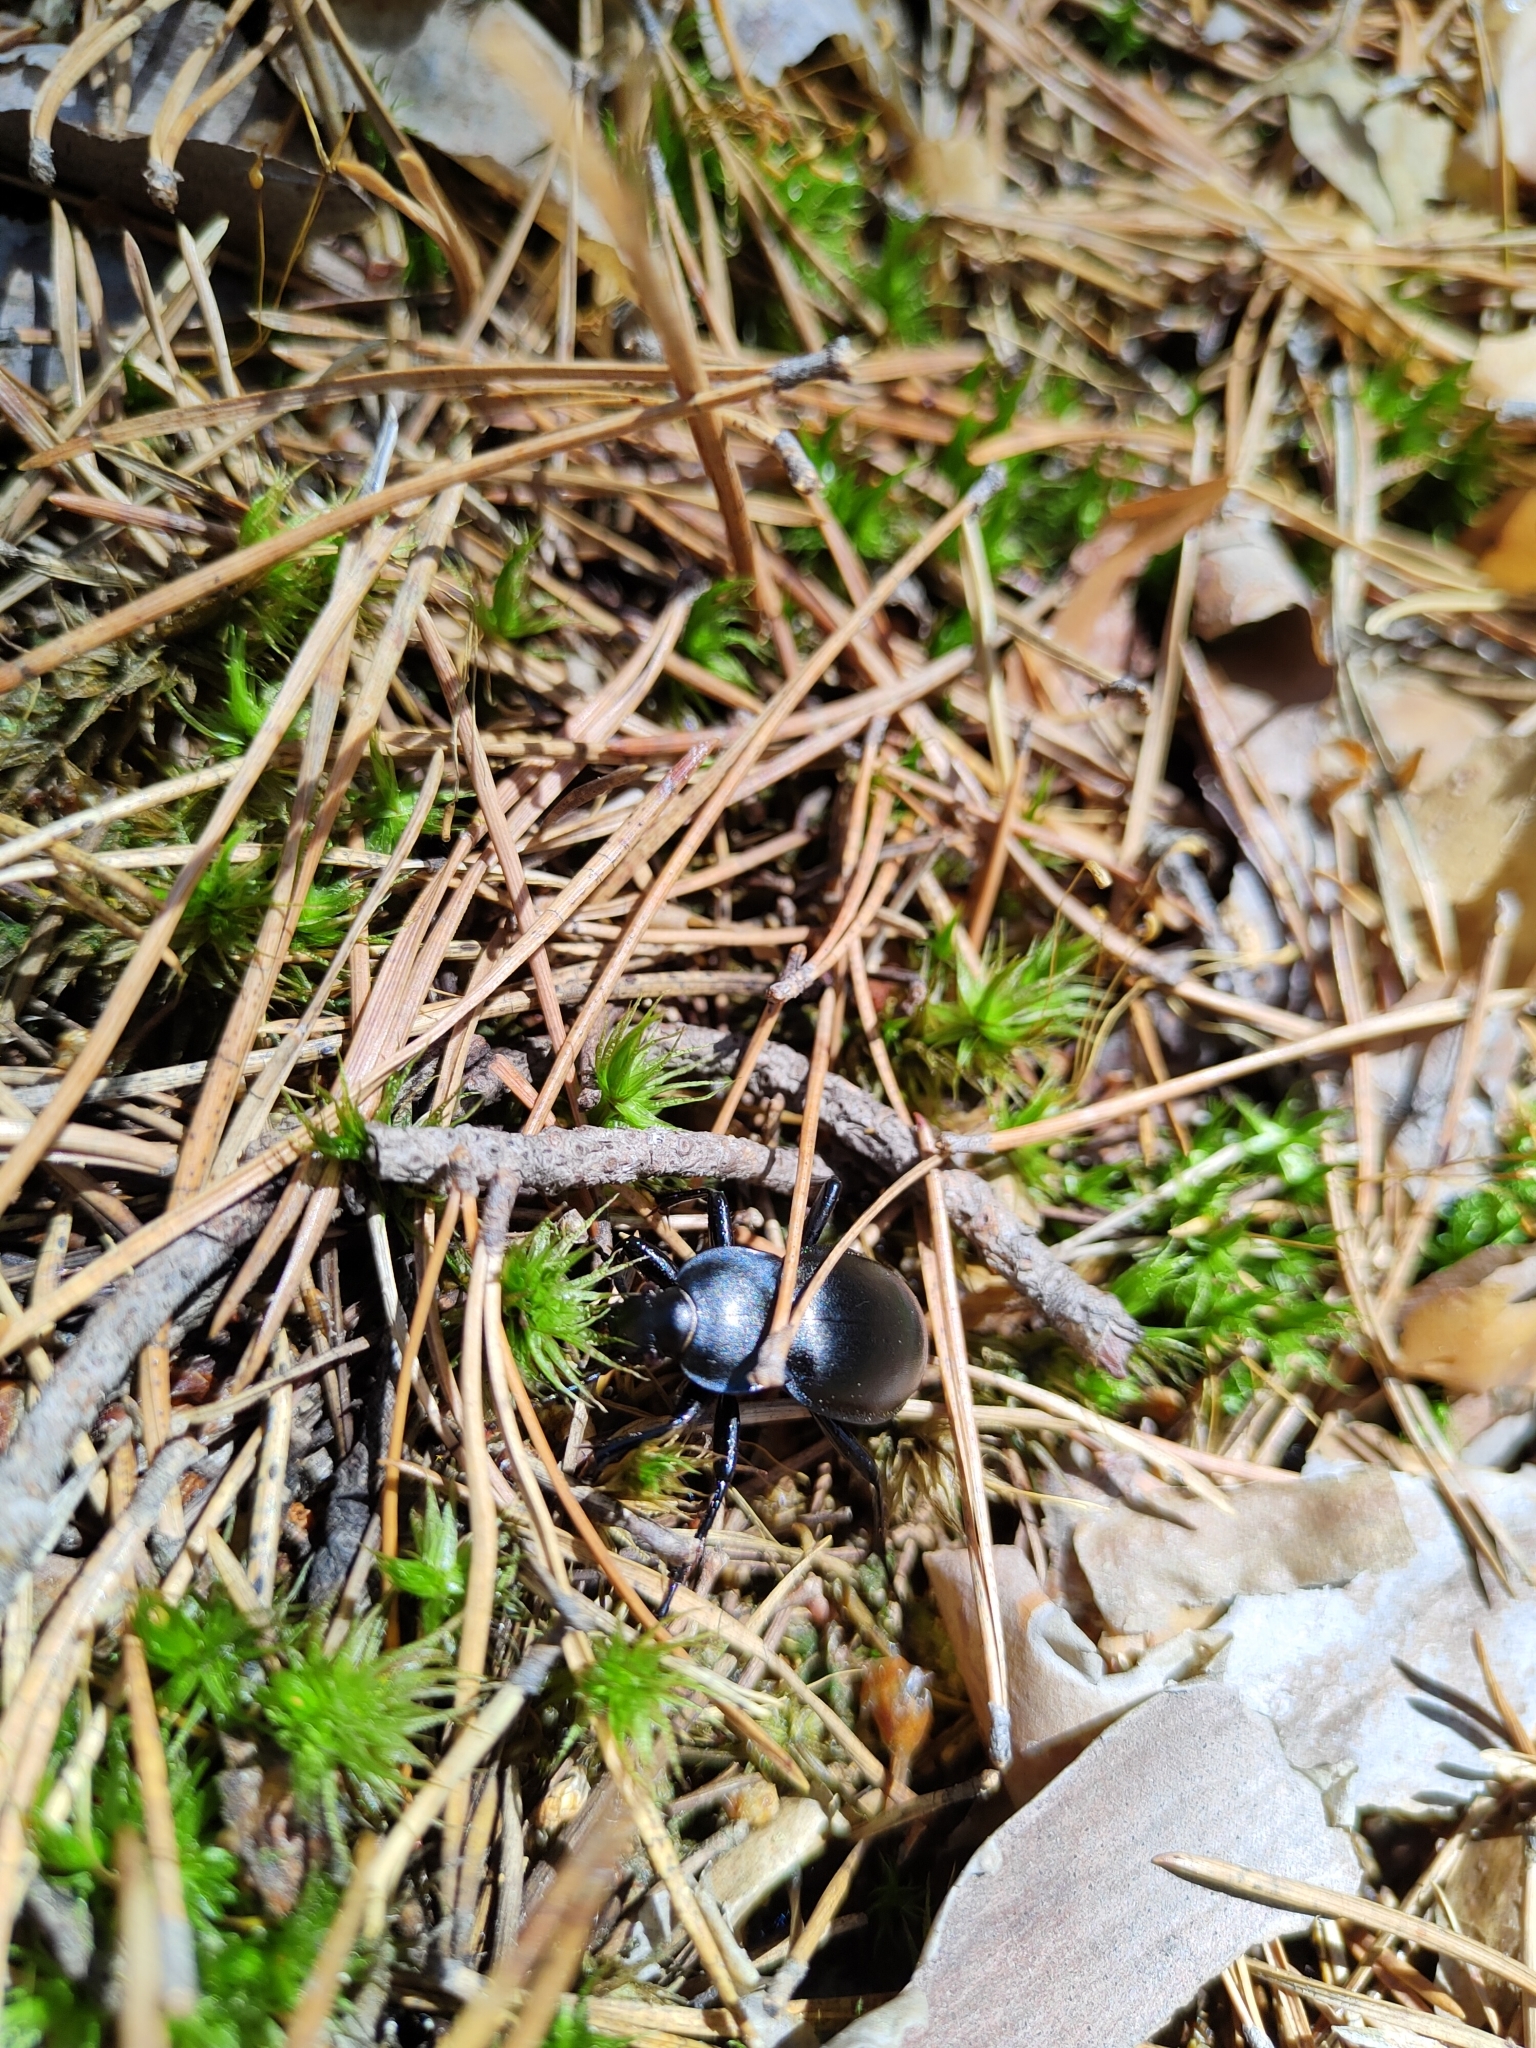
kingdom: Animalia
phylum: Arthropoda
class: Insecta
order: Coleoptera
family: Carabidae
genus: Carabus
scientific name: Carabus glabratus
